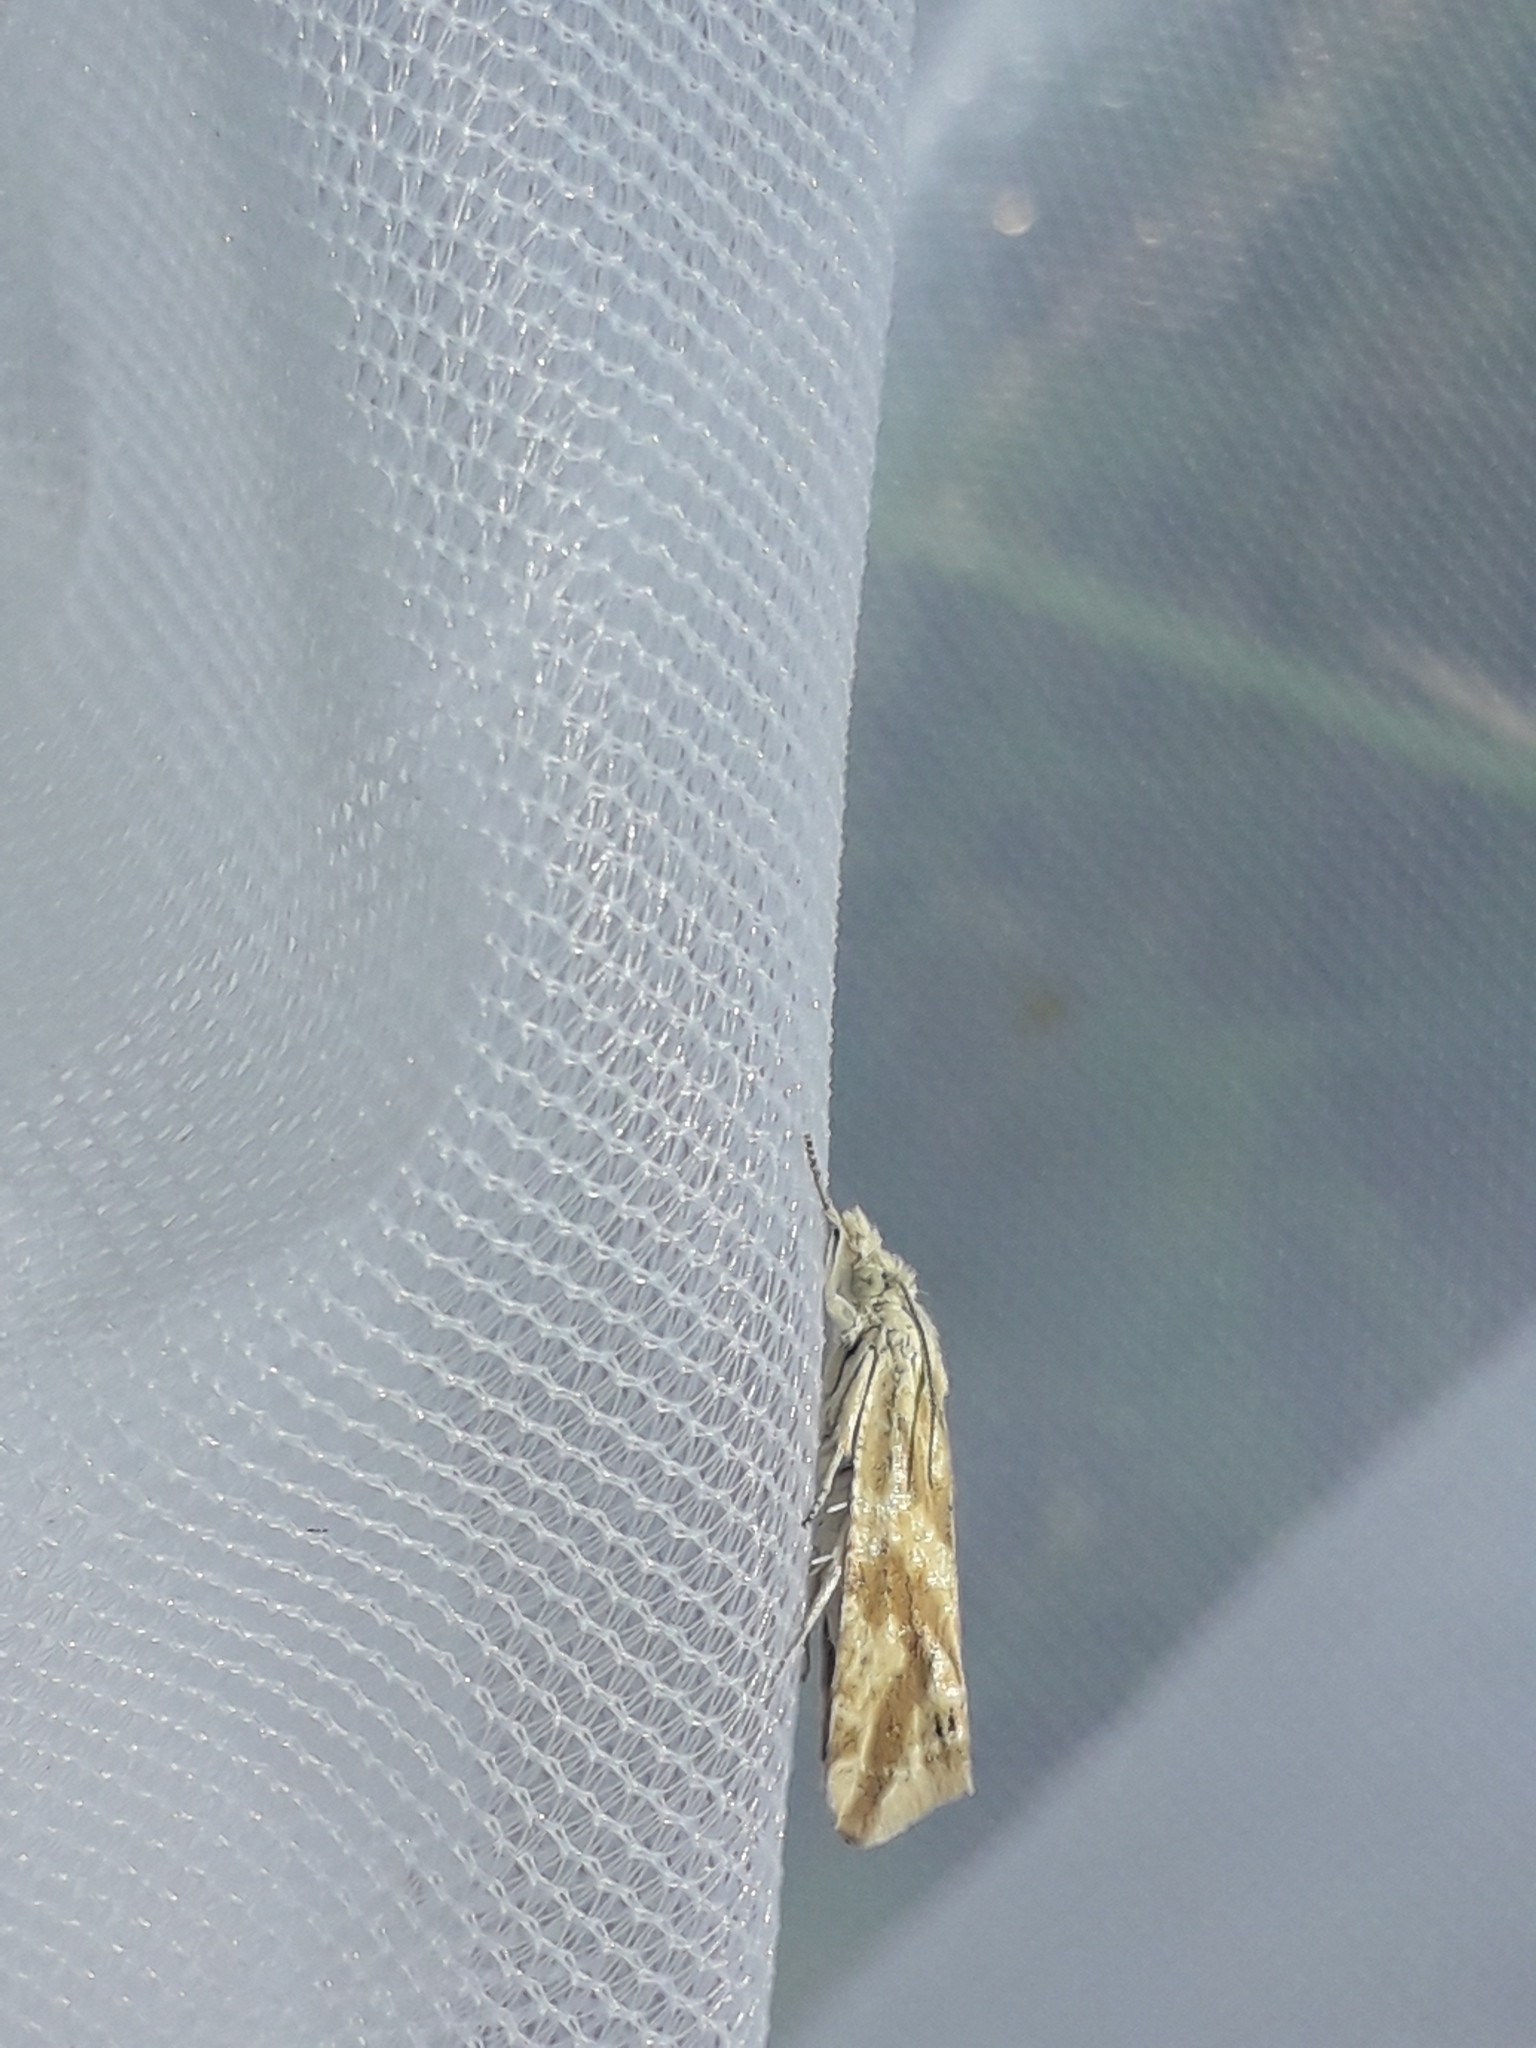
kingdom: Animalia
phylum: Arthropoda
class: Insecta
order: Lepidoptera
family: Tortricidae
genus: Thiodia
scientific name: Thiodia citrana
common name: Lemon bell
